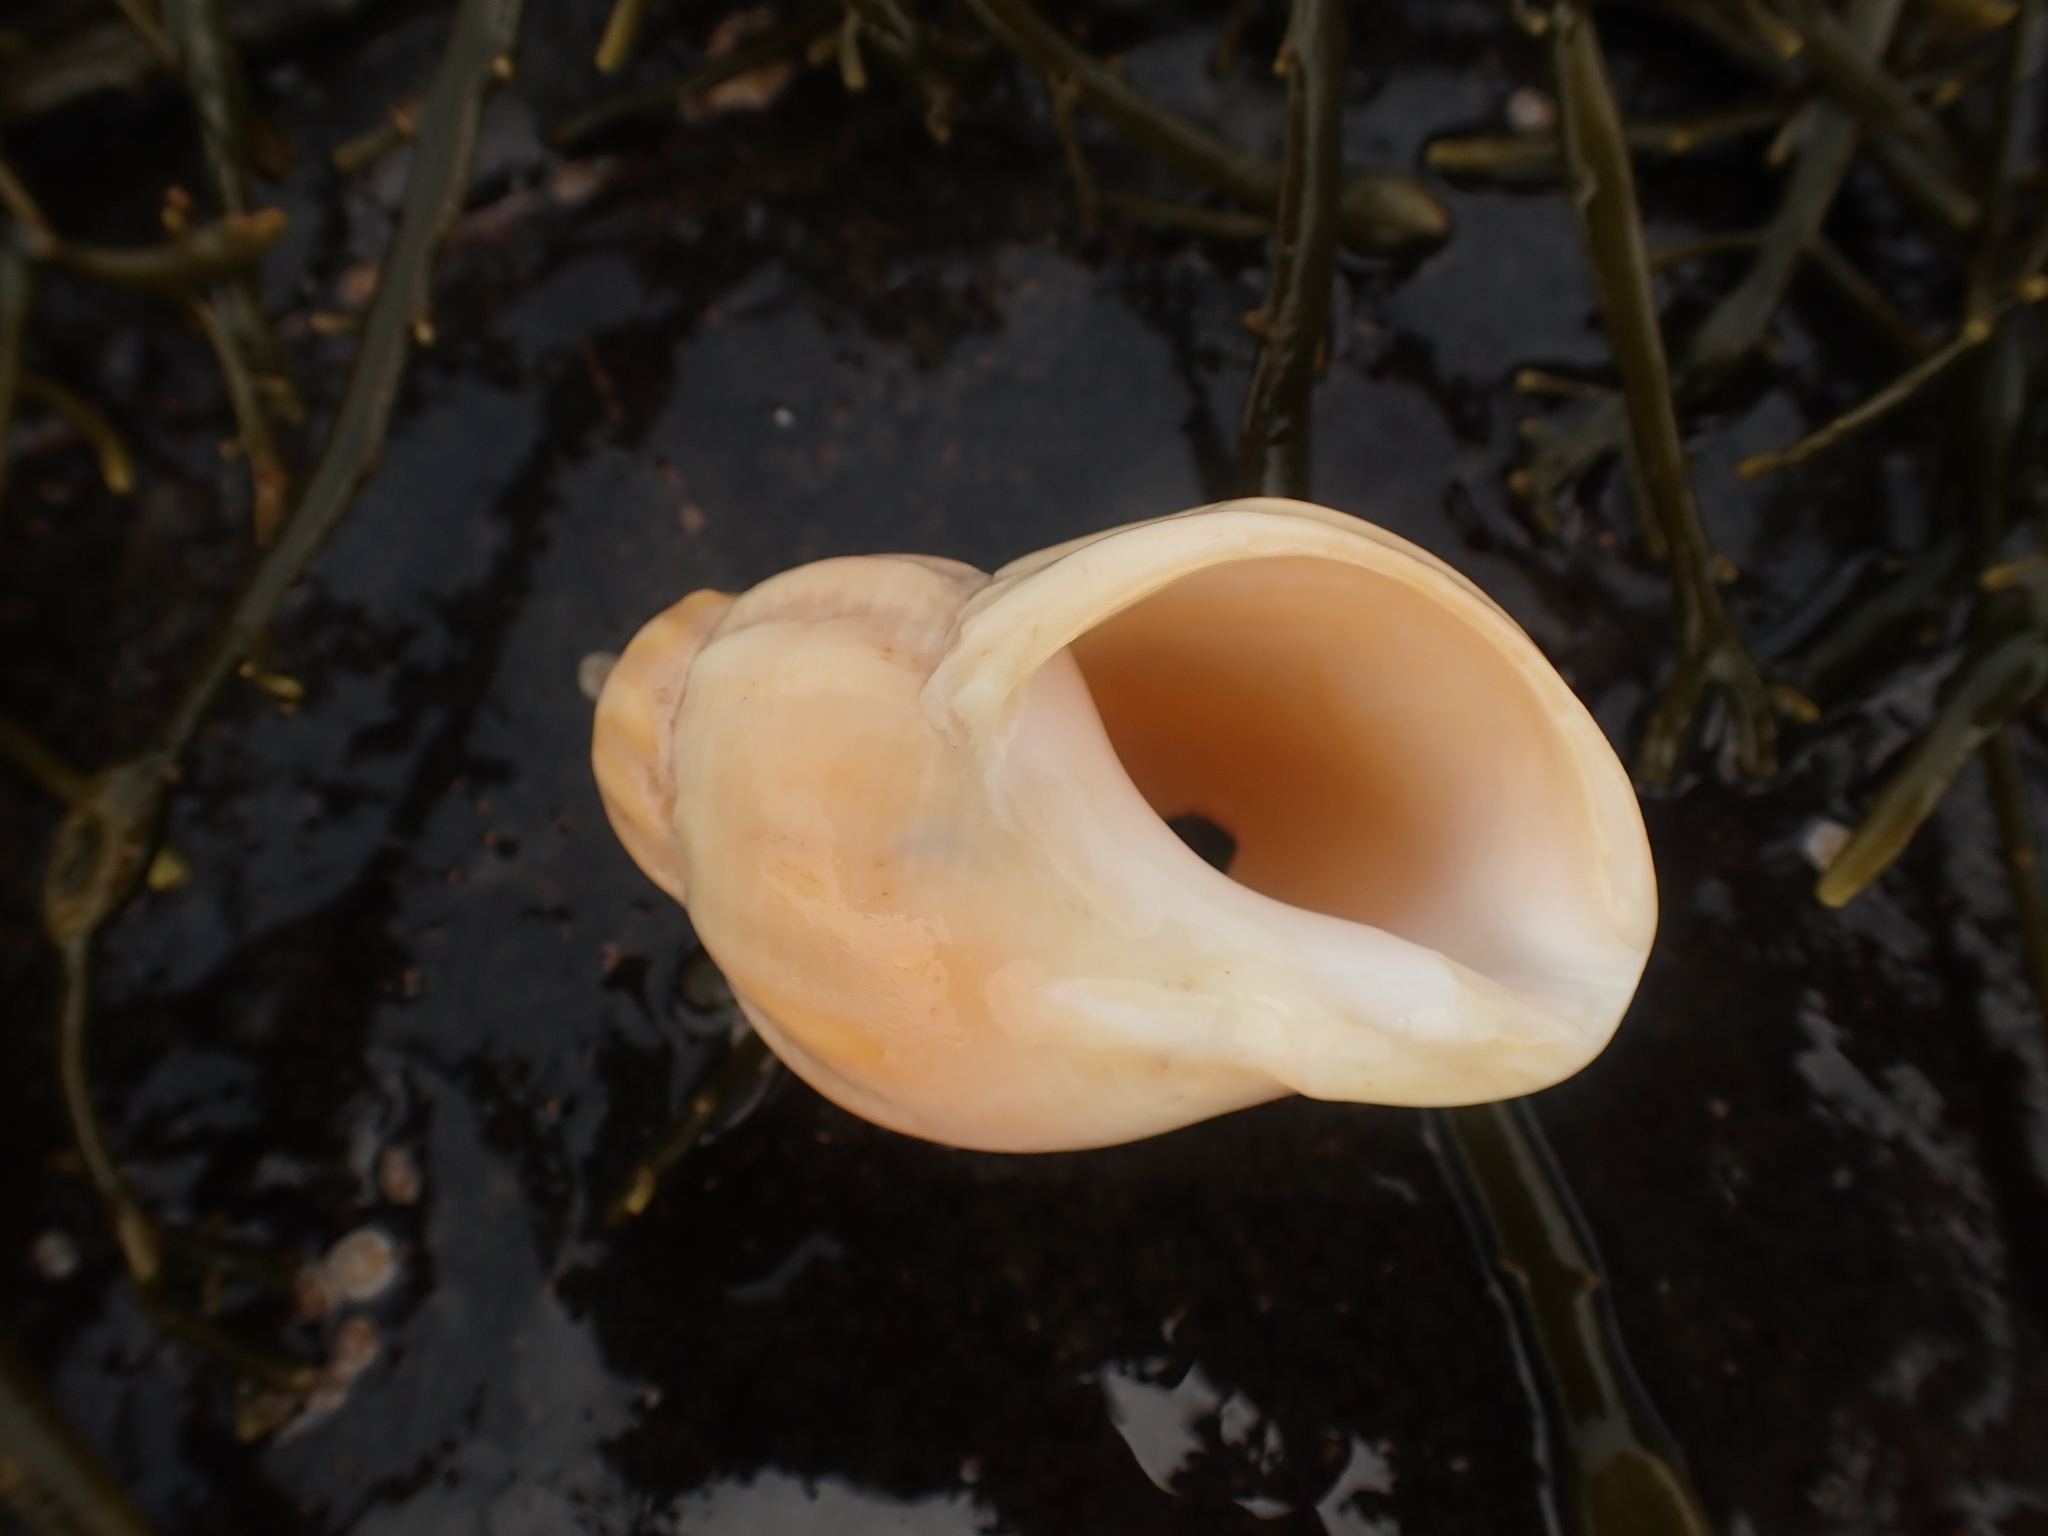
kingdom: Animalia
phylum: Mollusca
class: Gastropoda
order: Neogastropoda
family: Buccinidae
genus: Buccinum
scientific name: Buccinum undatum
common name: Common whelk
